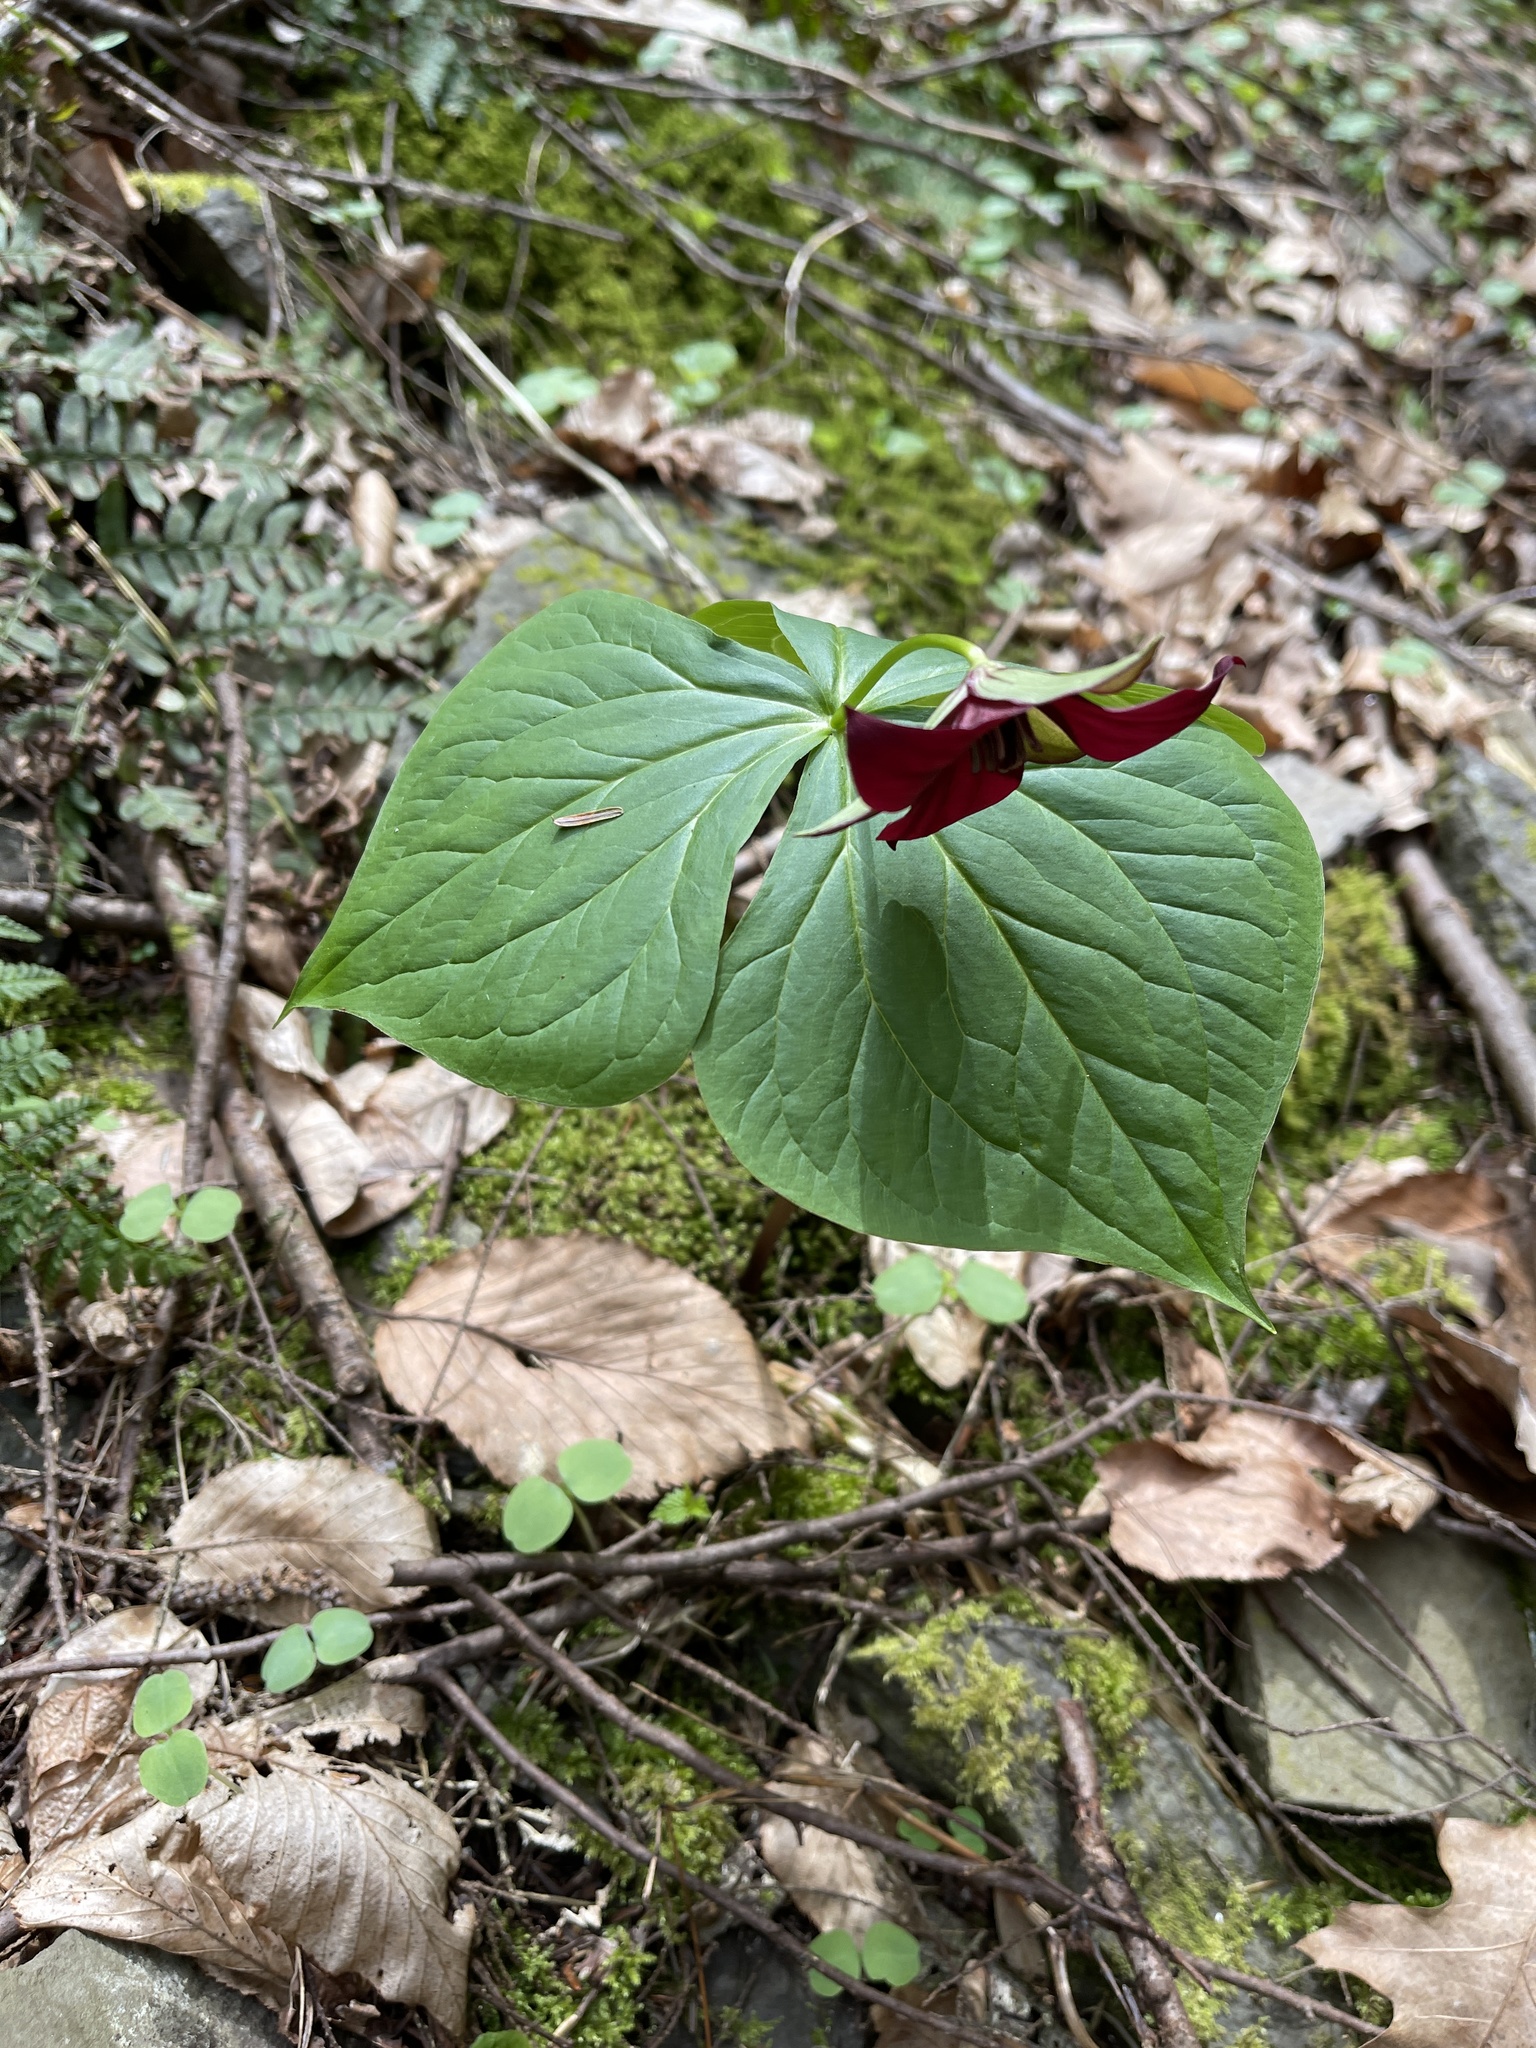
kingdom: Plantae
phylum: Tracheophyta
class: Liliopsida
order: Liliales
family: Melanthiaceae
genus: Trillium
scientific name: Trillium erectum
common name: Purple trillium
